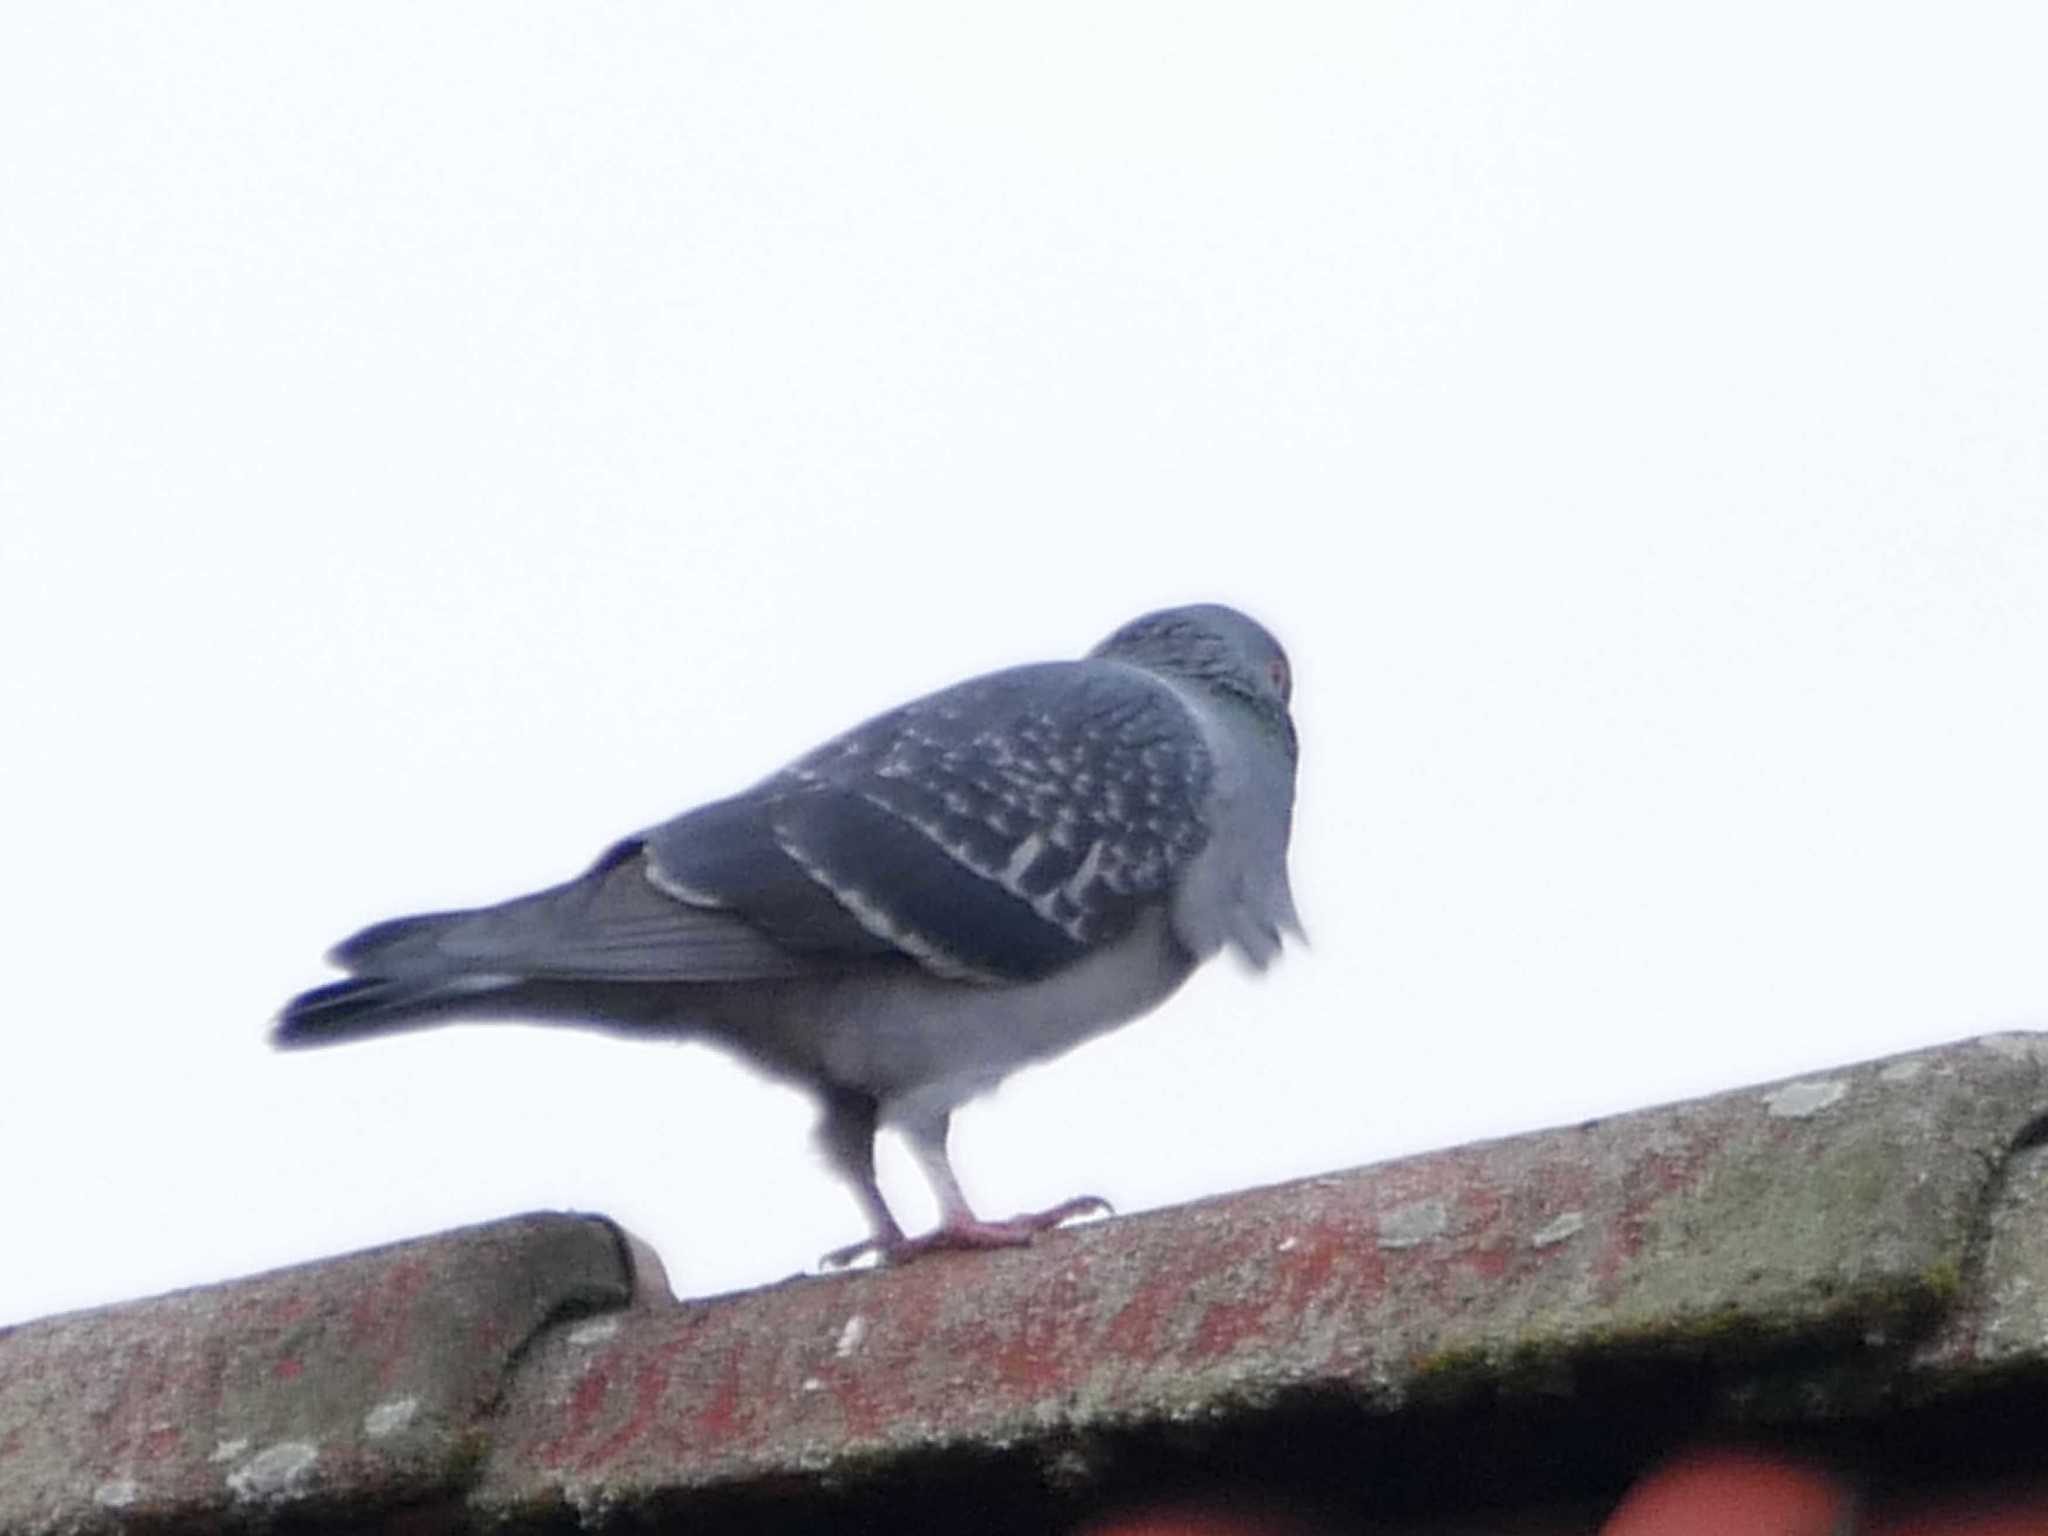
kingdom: Animalia
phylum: Chordata
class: Aves
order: Columbiformes
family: Columbidae
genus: Columba
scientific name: Columba livia
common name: Rock pigeon
